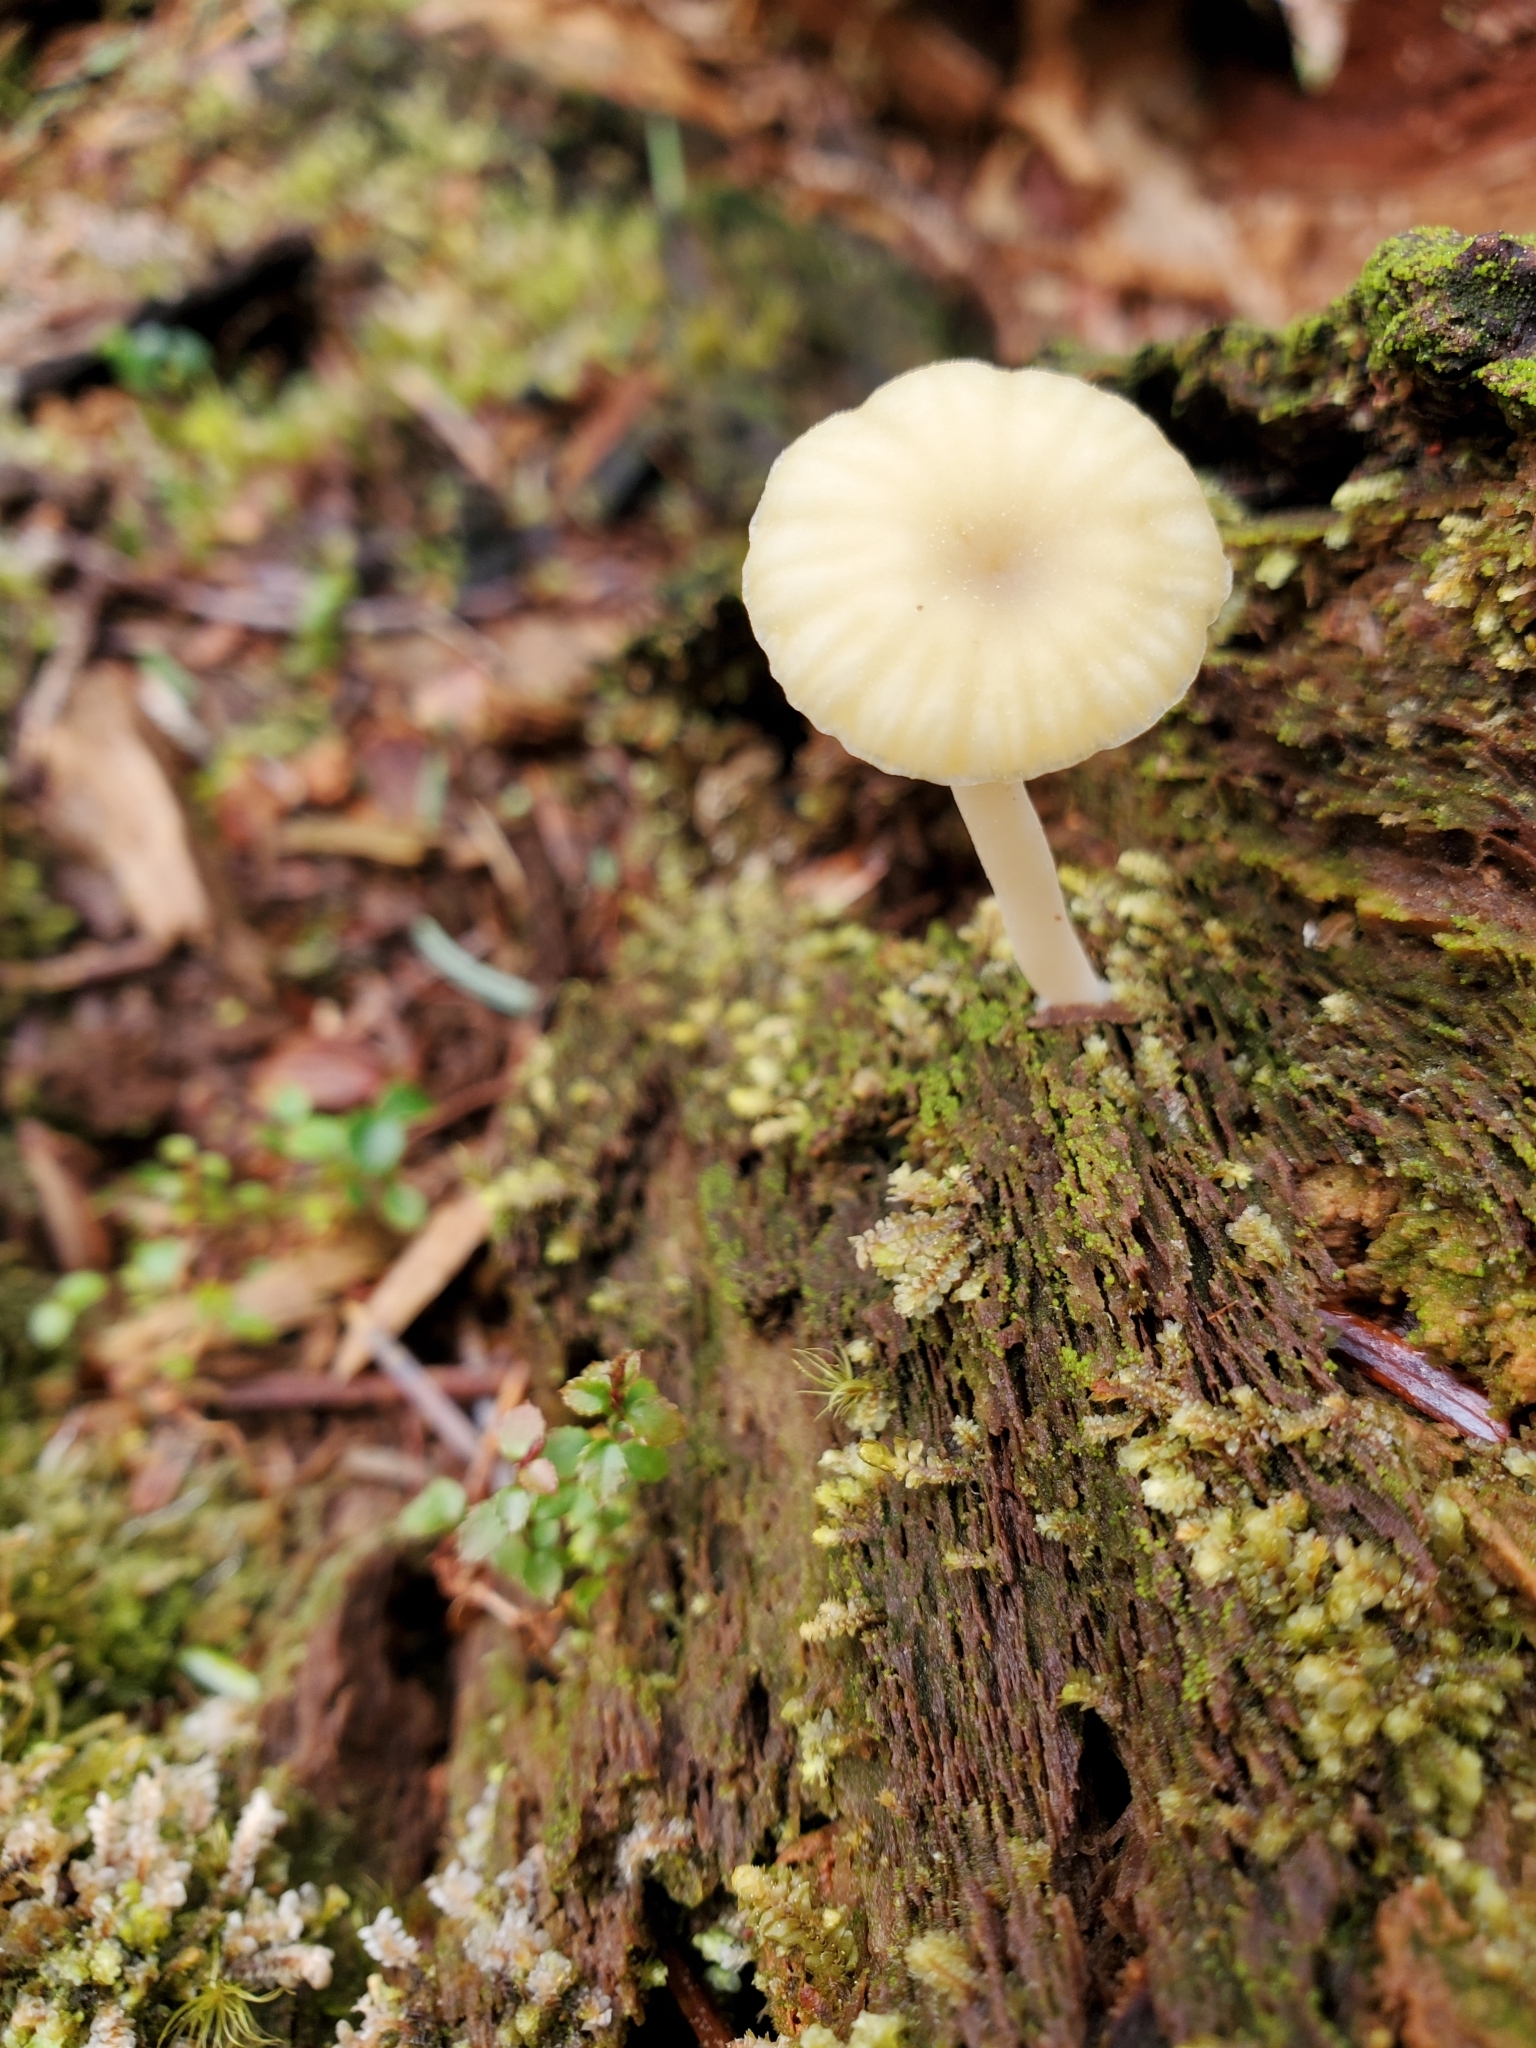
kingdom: Fungi
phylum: Basidiomycota
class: Agaricomycetes
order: Agaricales
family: Hygrophoraceae
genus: Lichenomphalia
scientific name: Lichenomphalia
